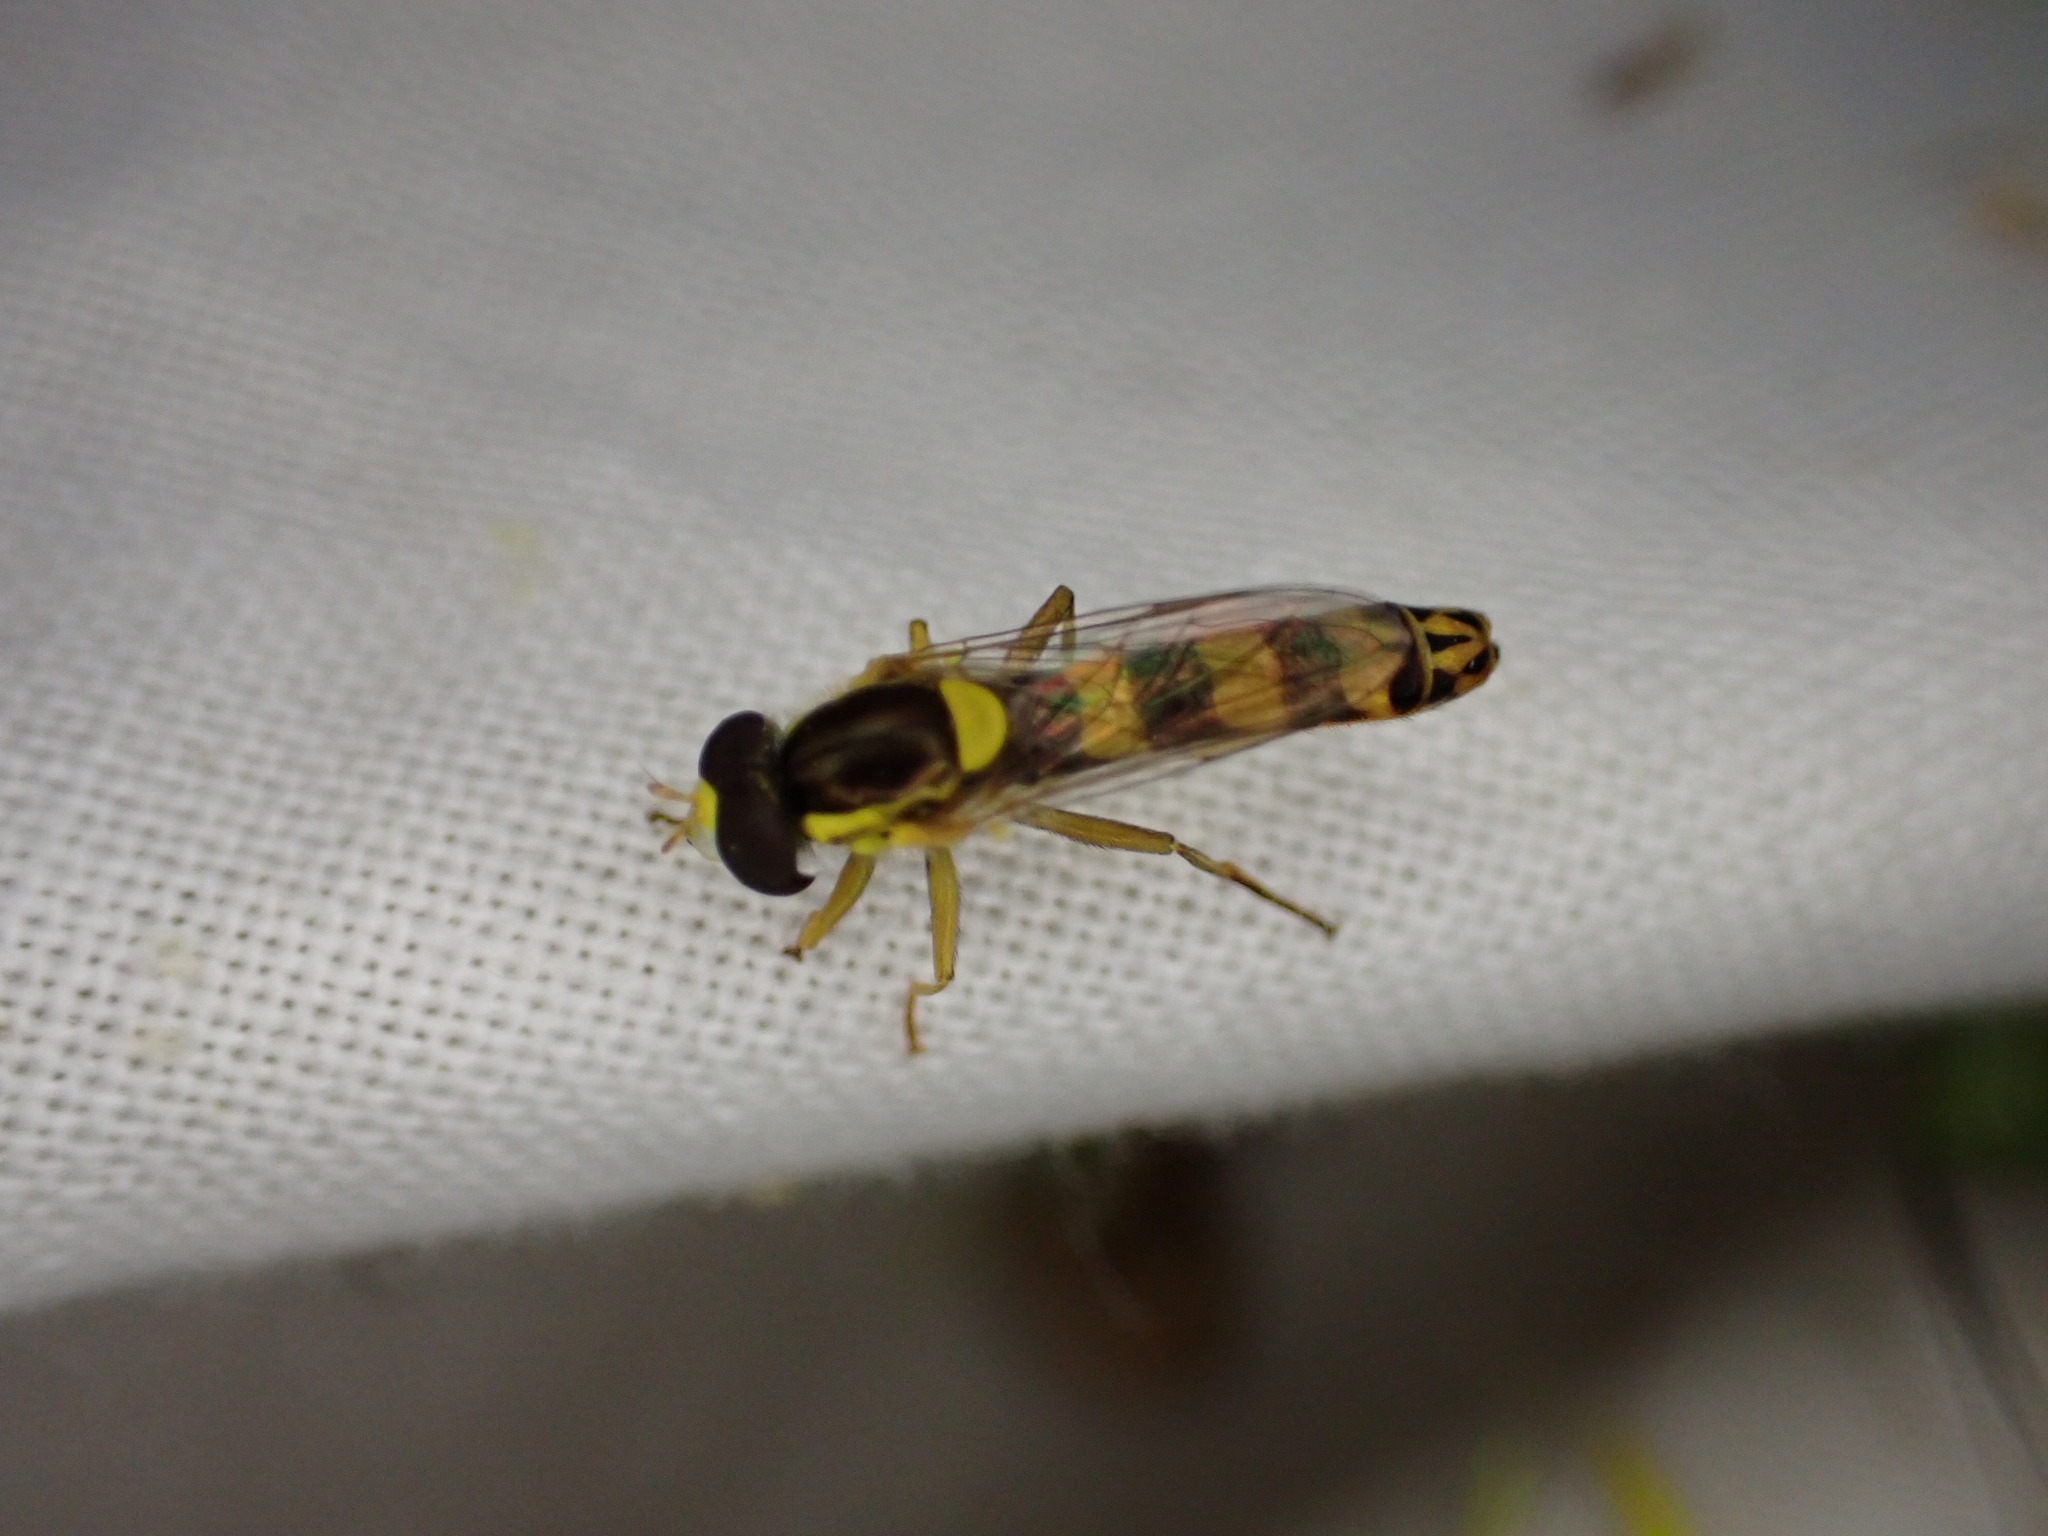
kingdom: Animalia
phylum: Arthropoda
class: Insecta
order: Diptera
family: Syrphidae
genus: Sphaerophoria
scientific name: Sphaerophoria scripta
